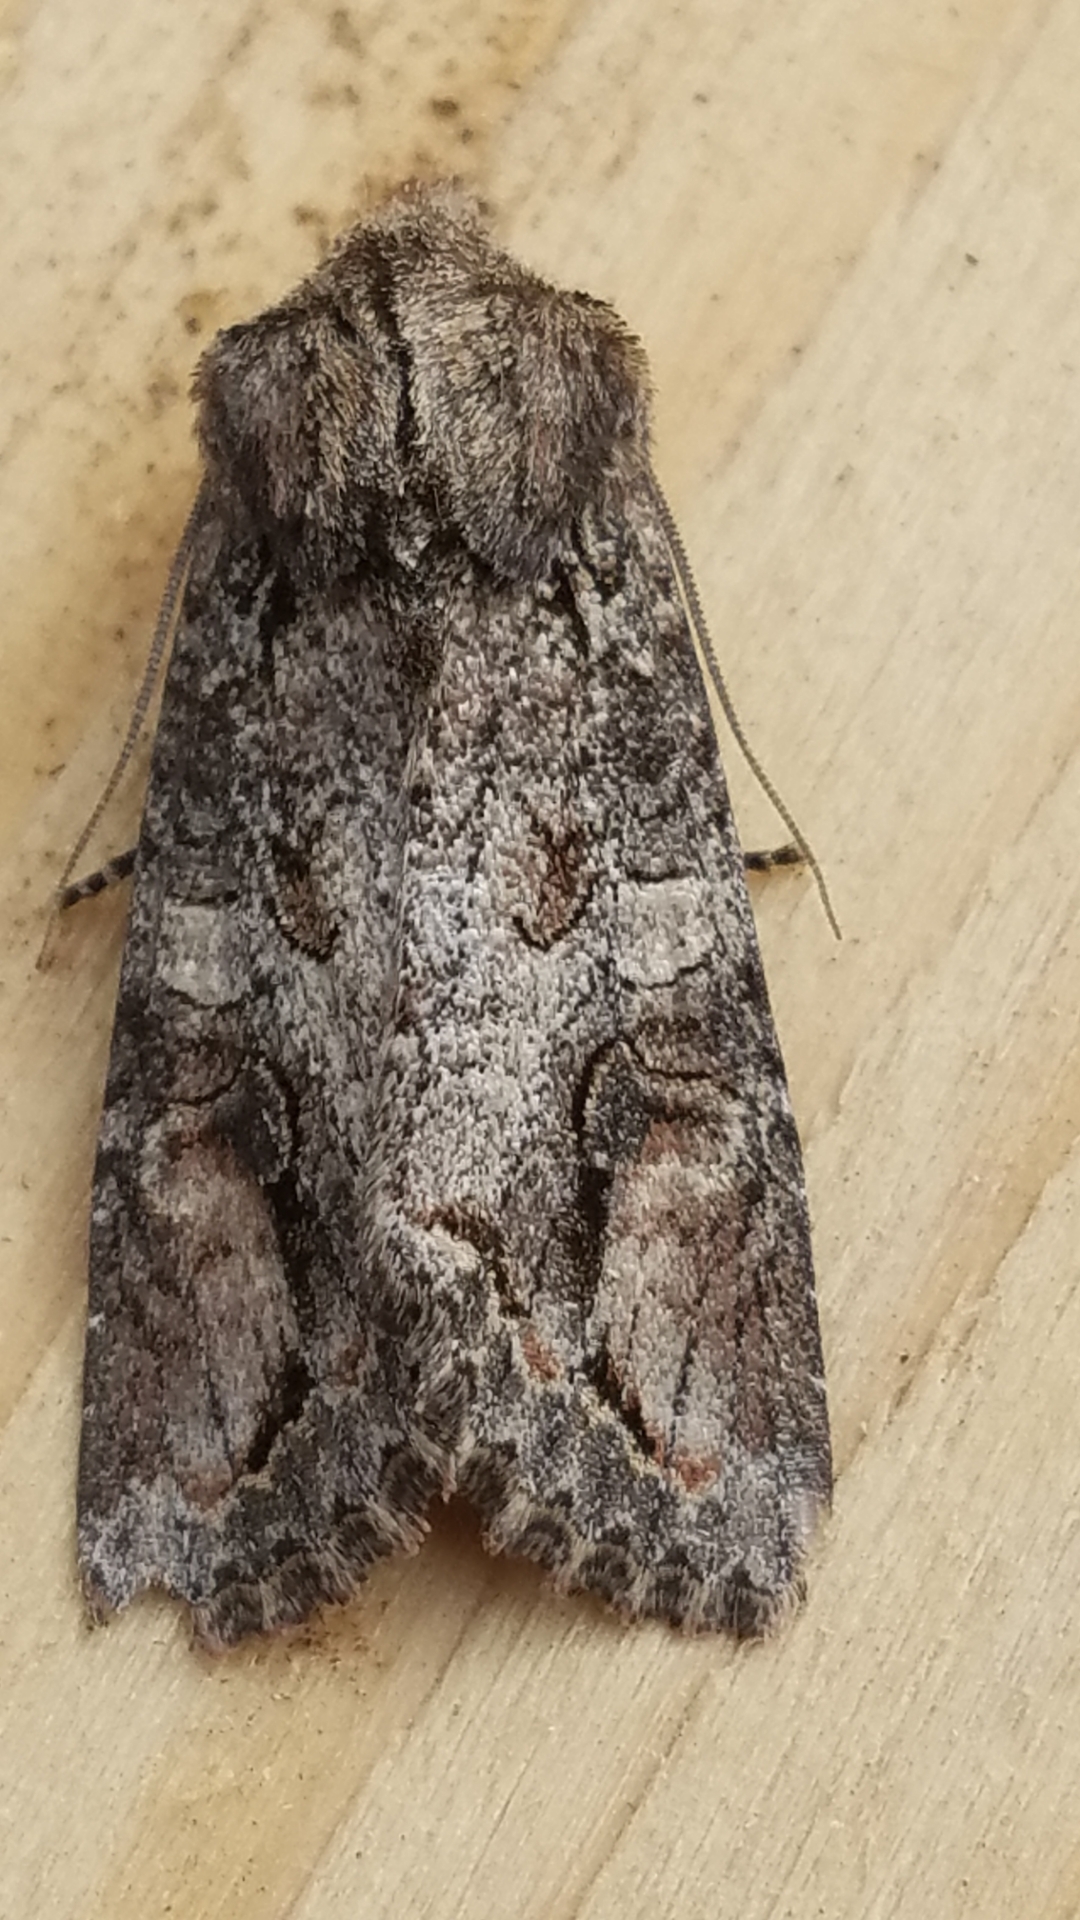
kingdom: Animalia
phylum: Arthropoda
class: Insecta
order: Lepidoptera
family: Noctuidae
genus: Egira
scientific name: Egira perlubens
